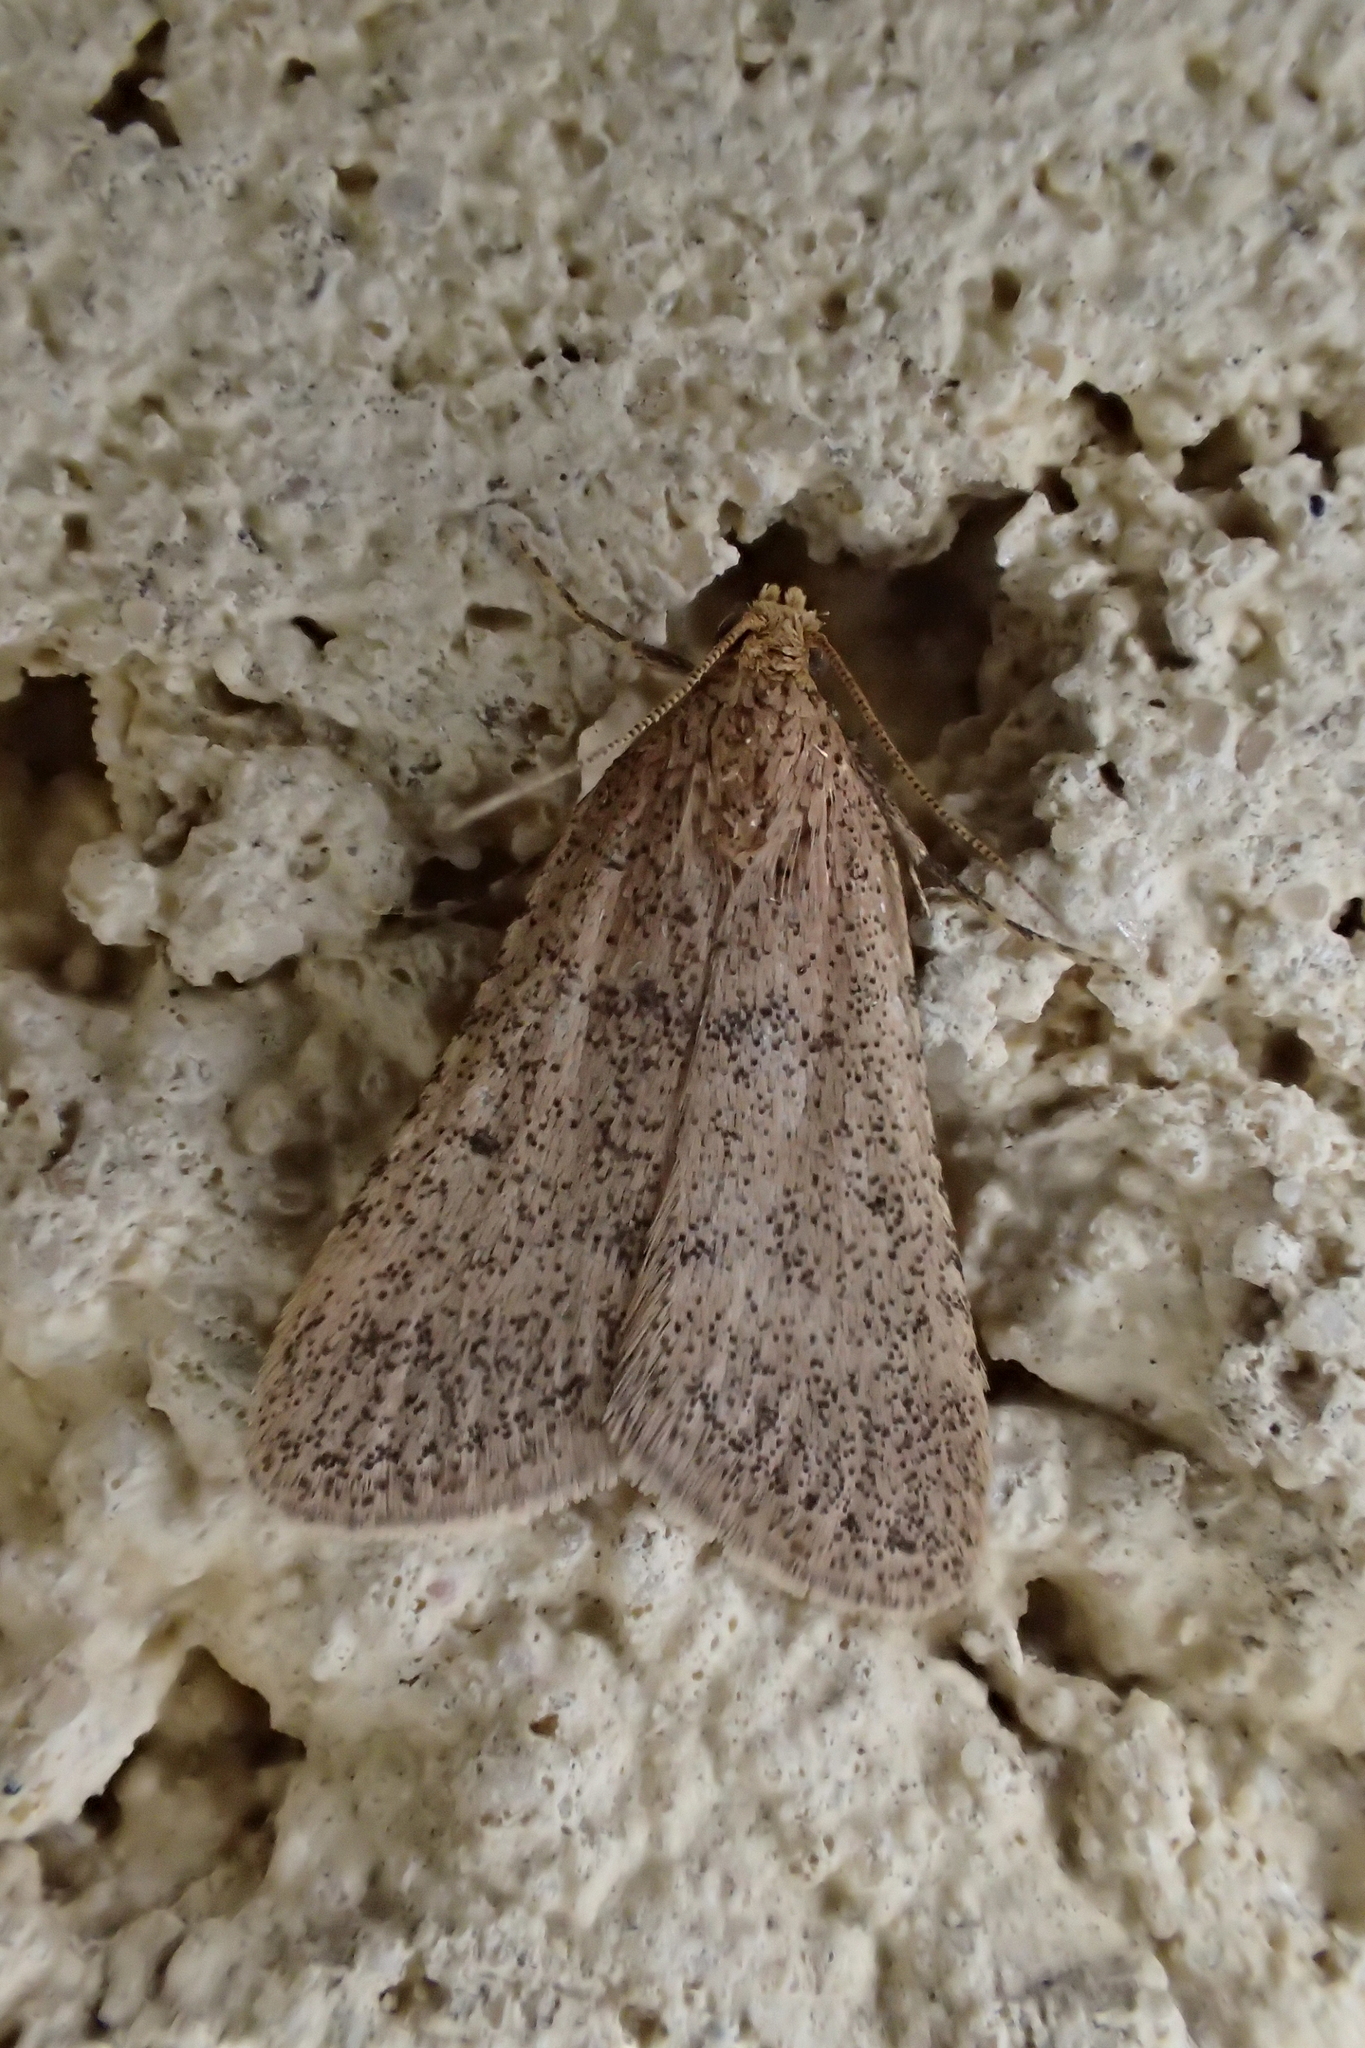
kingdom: Animalia
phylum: Arthropoda
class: Insecta
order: Lepidoptera
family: Pyralidae
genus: Bostra
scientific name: Bostra obsoletalis
